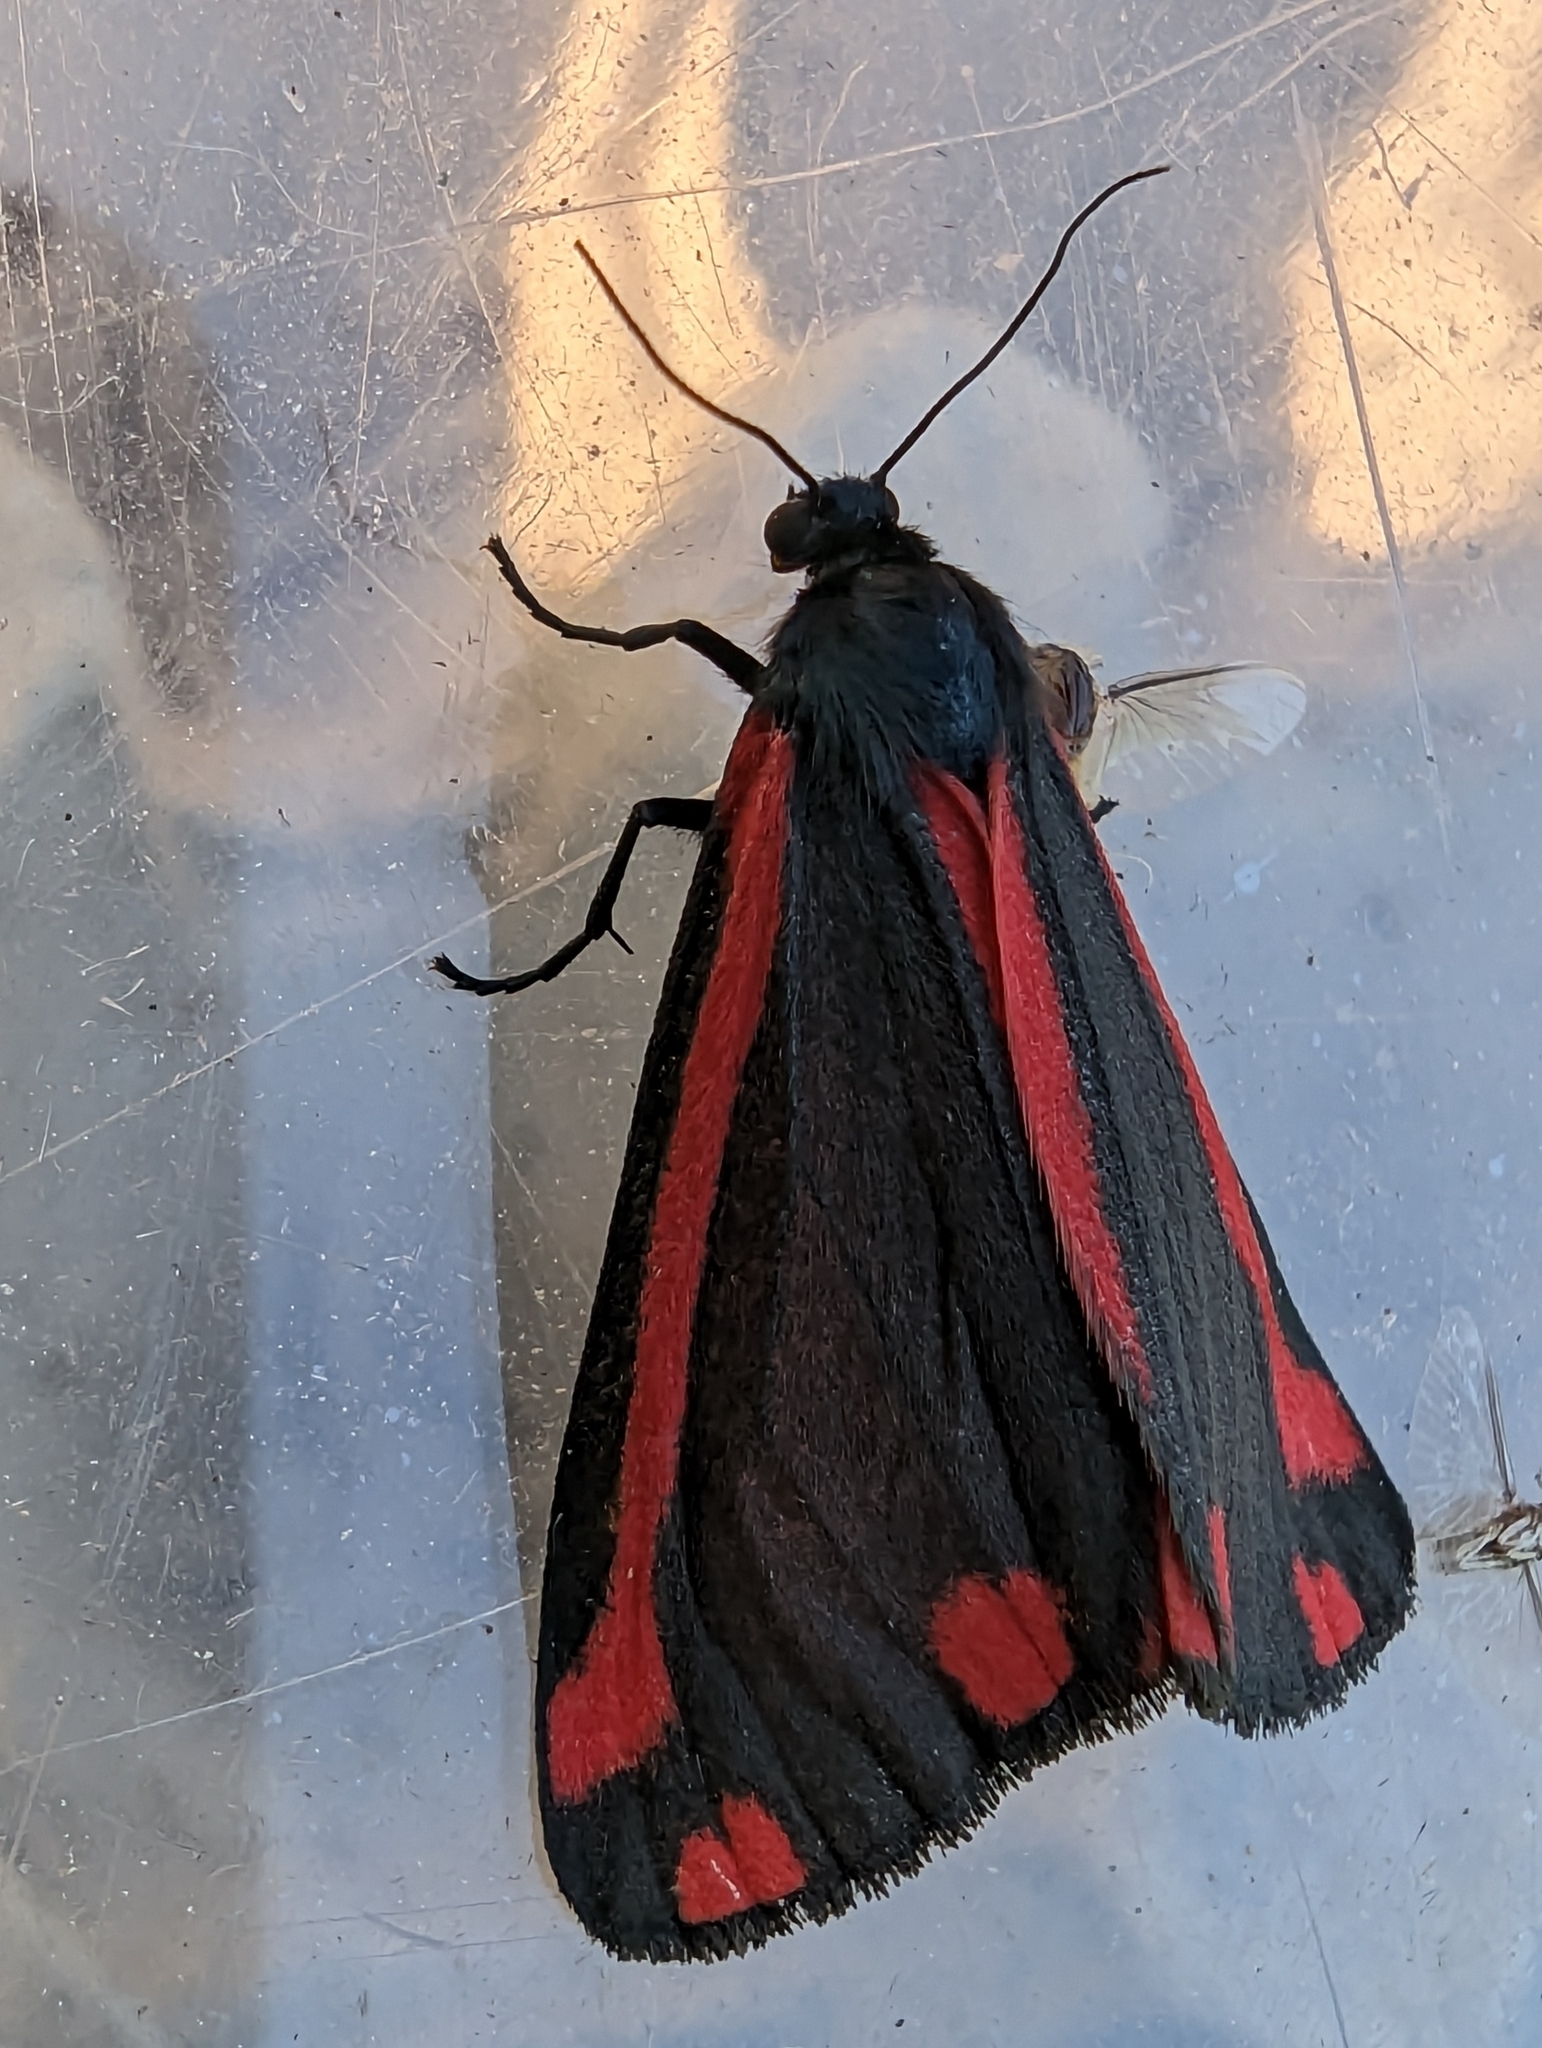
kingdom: Animalia
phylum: Arthropoda
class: Insecta
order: Lepidoptera
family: Erebidae
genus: Tyria
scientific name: Tyria jacobaeae
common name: Cinnabar
